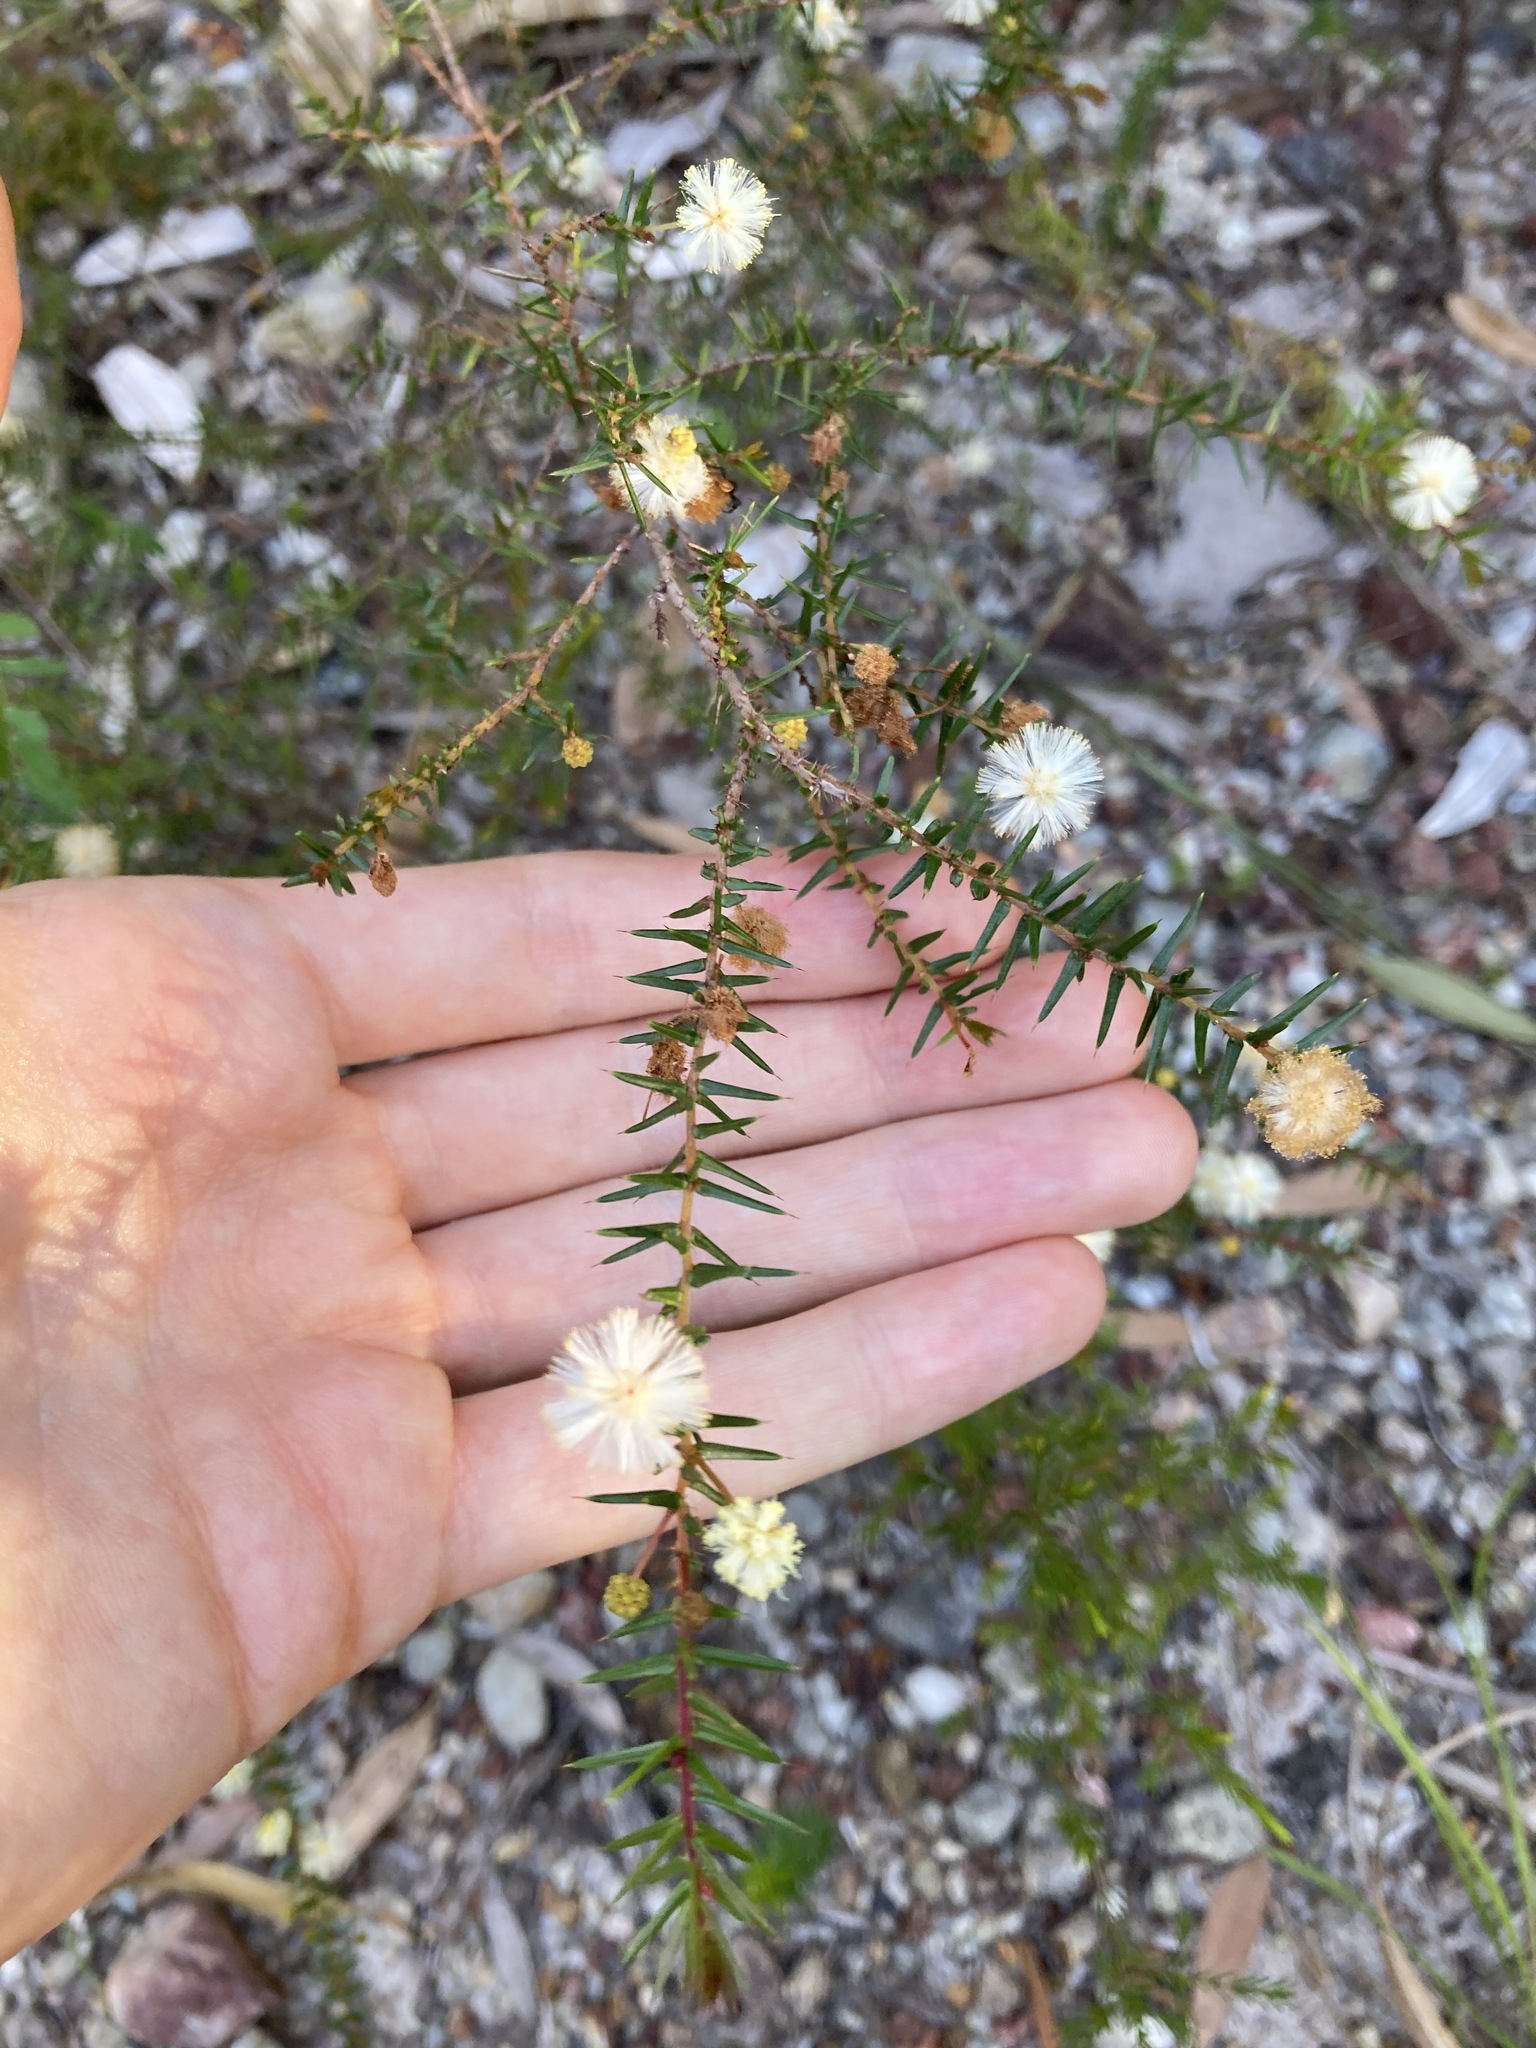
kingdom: Plantae
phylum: Tracheophyta
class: Magnoliopsida
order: Fabales
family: Fabaceae
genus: Acacia
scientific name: Acacia ulicifolia
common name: Juniper wattle
